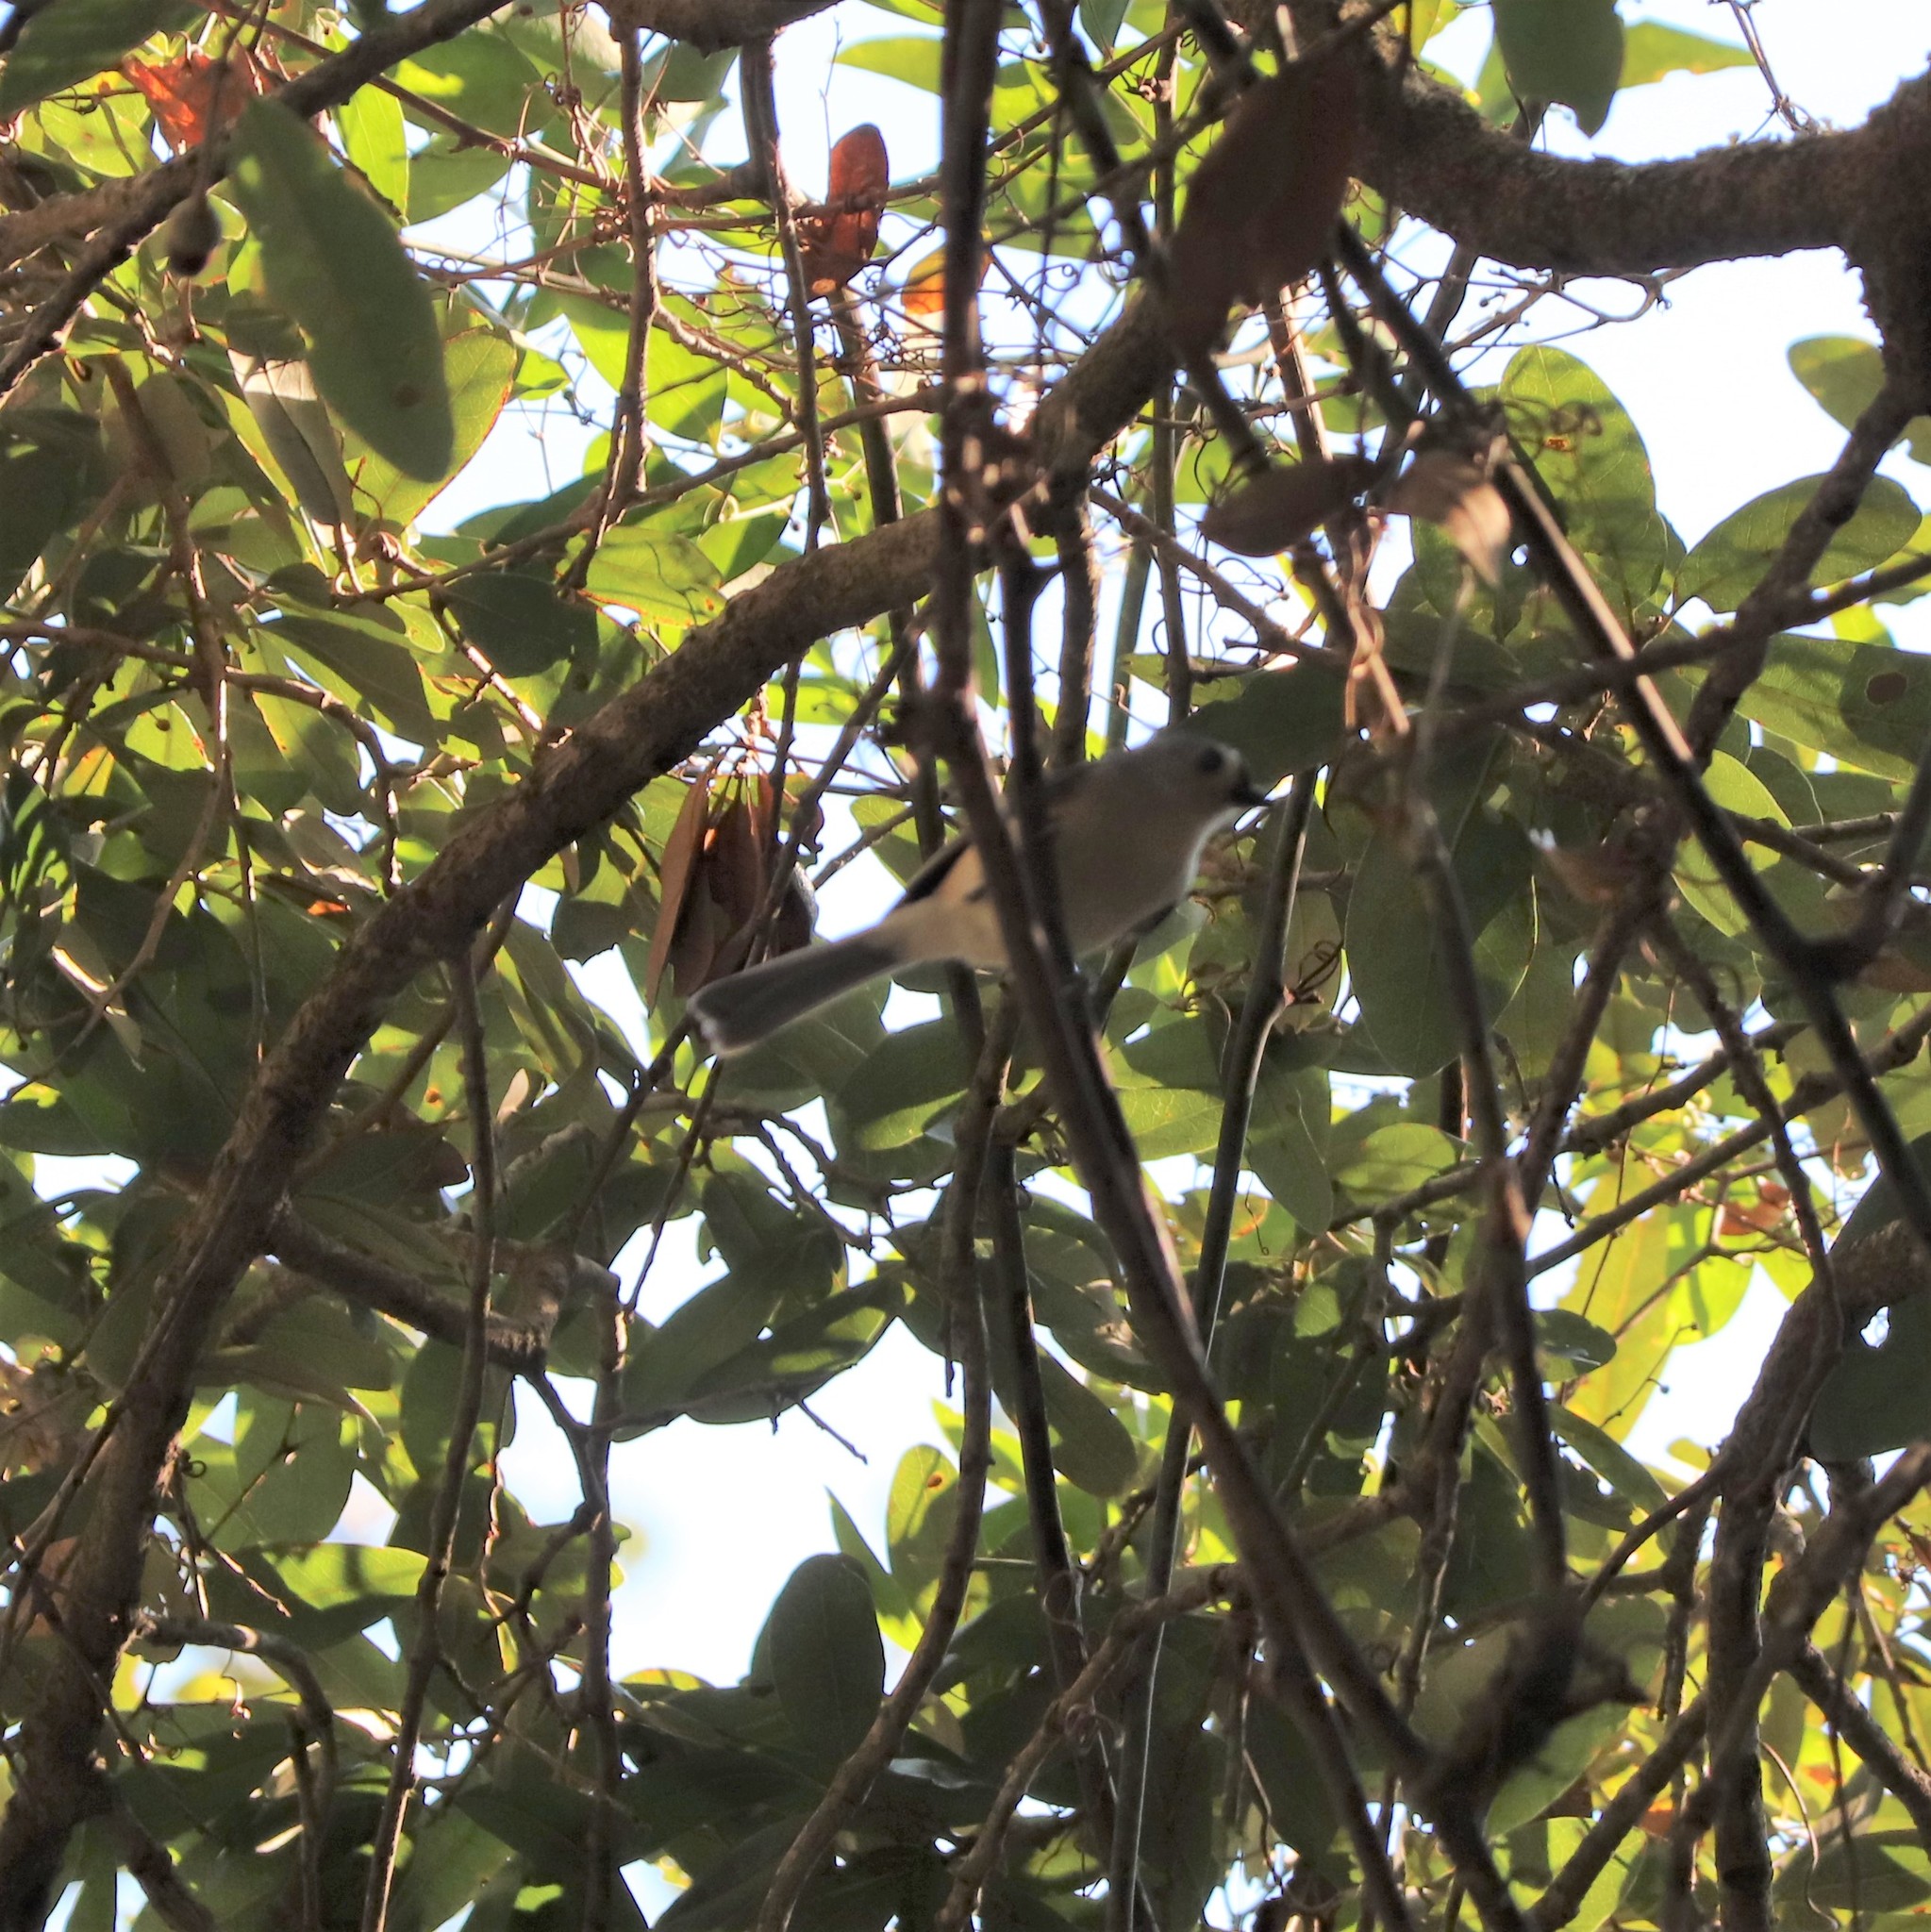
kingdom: Animalia
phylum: Chordata
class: Aves
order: Passeriformes
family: Paridae
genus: Baeolophus
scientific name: Baeolophus bicolor
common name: Tufted titmouse
